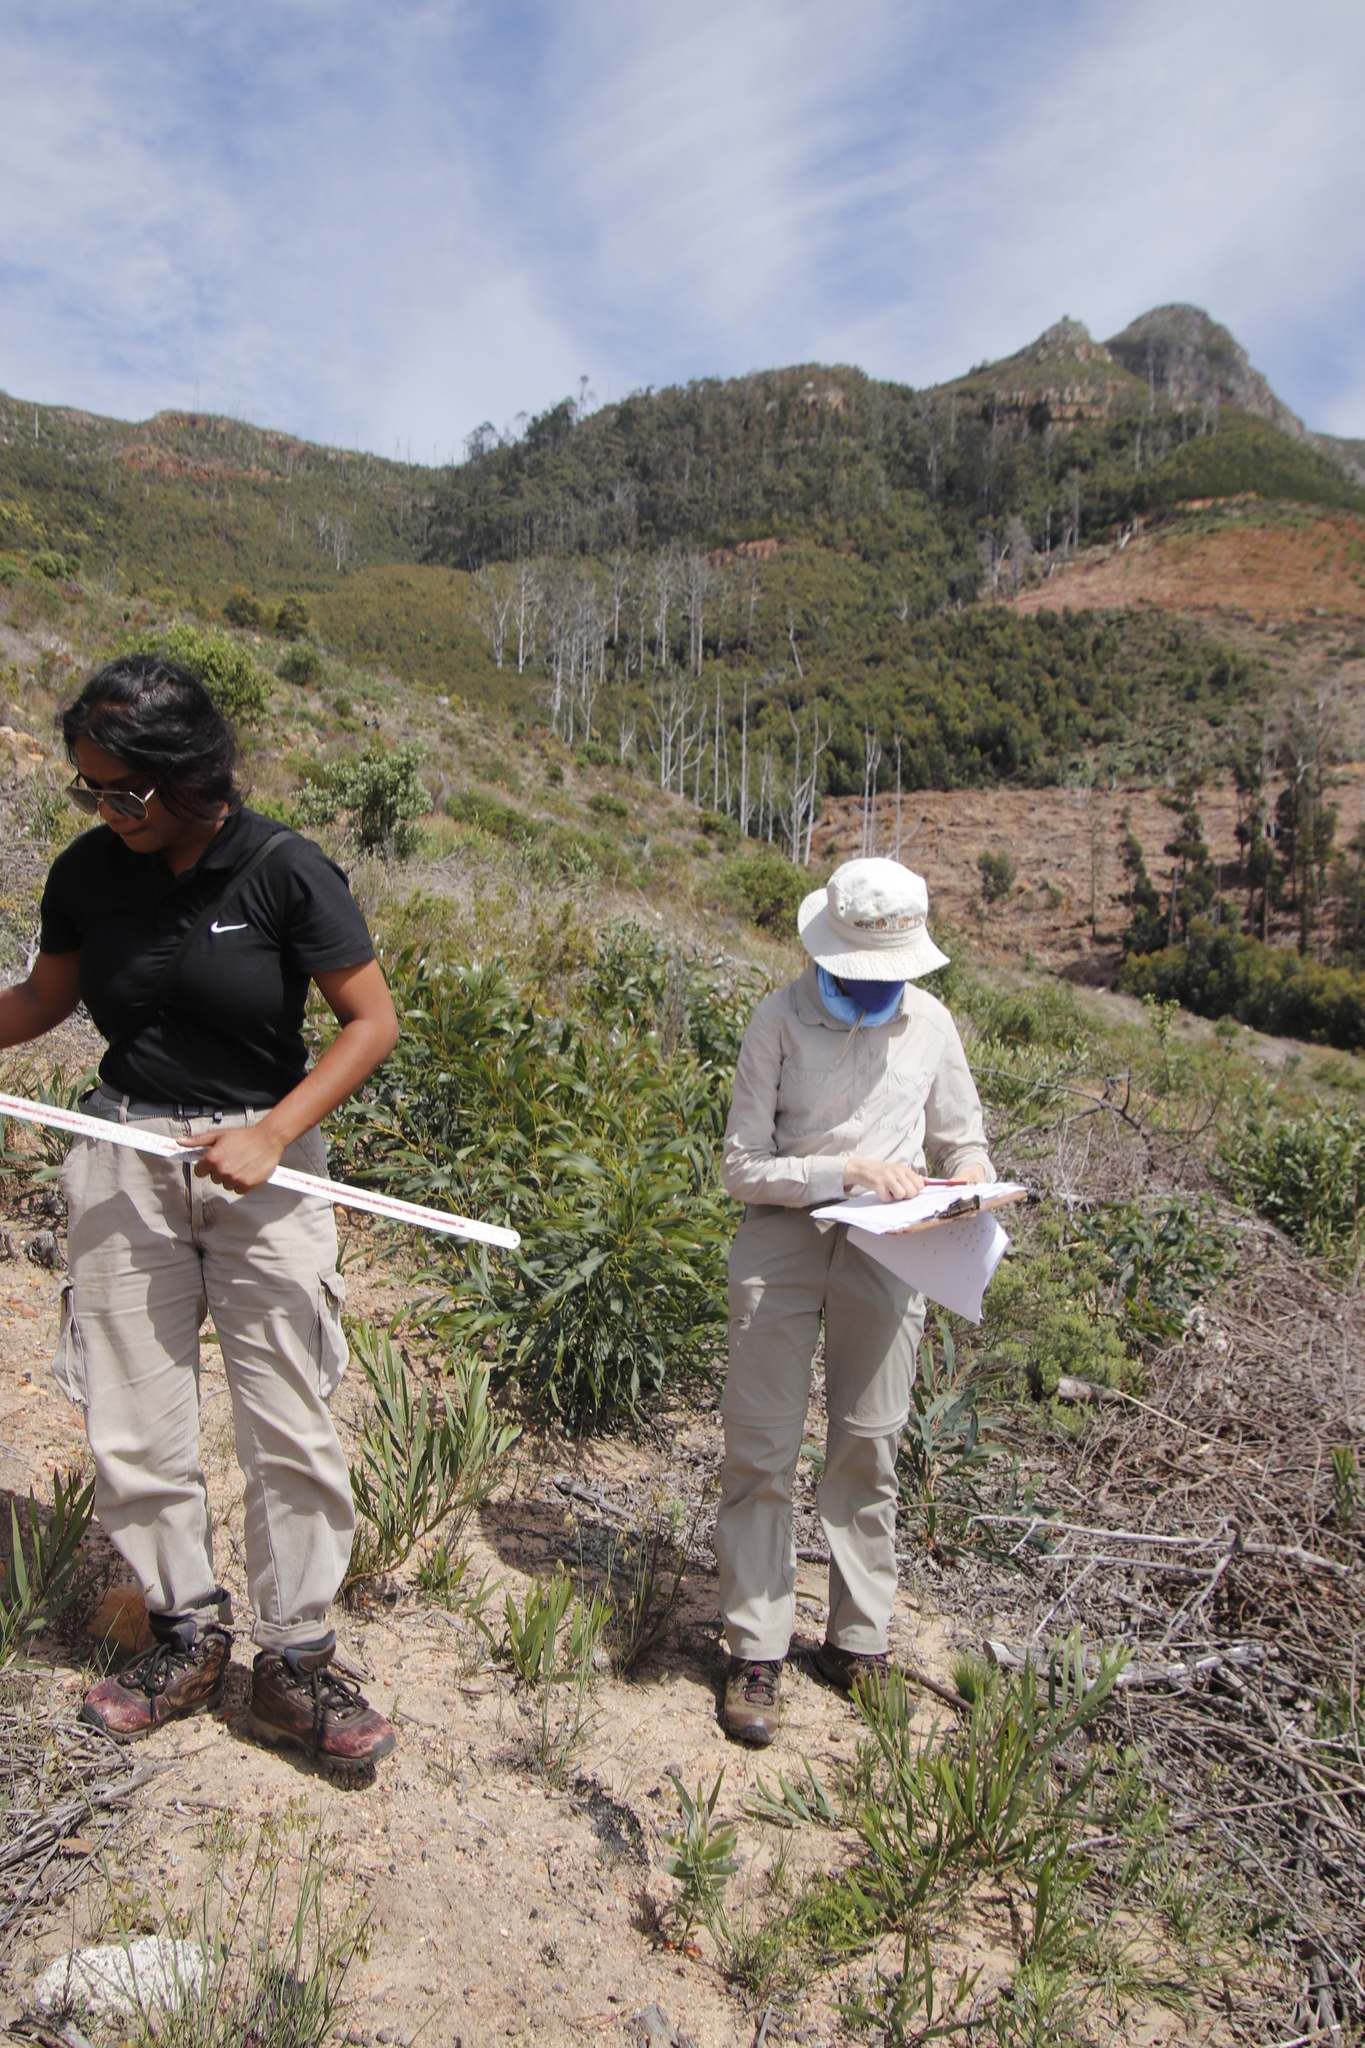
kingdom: Plantae
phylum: Tracheophyta
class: Magnoliopsida
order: Fabales
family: Fabaceae
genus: Acacia
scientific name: Acacia saligna
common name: Orange wattle
